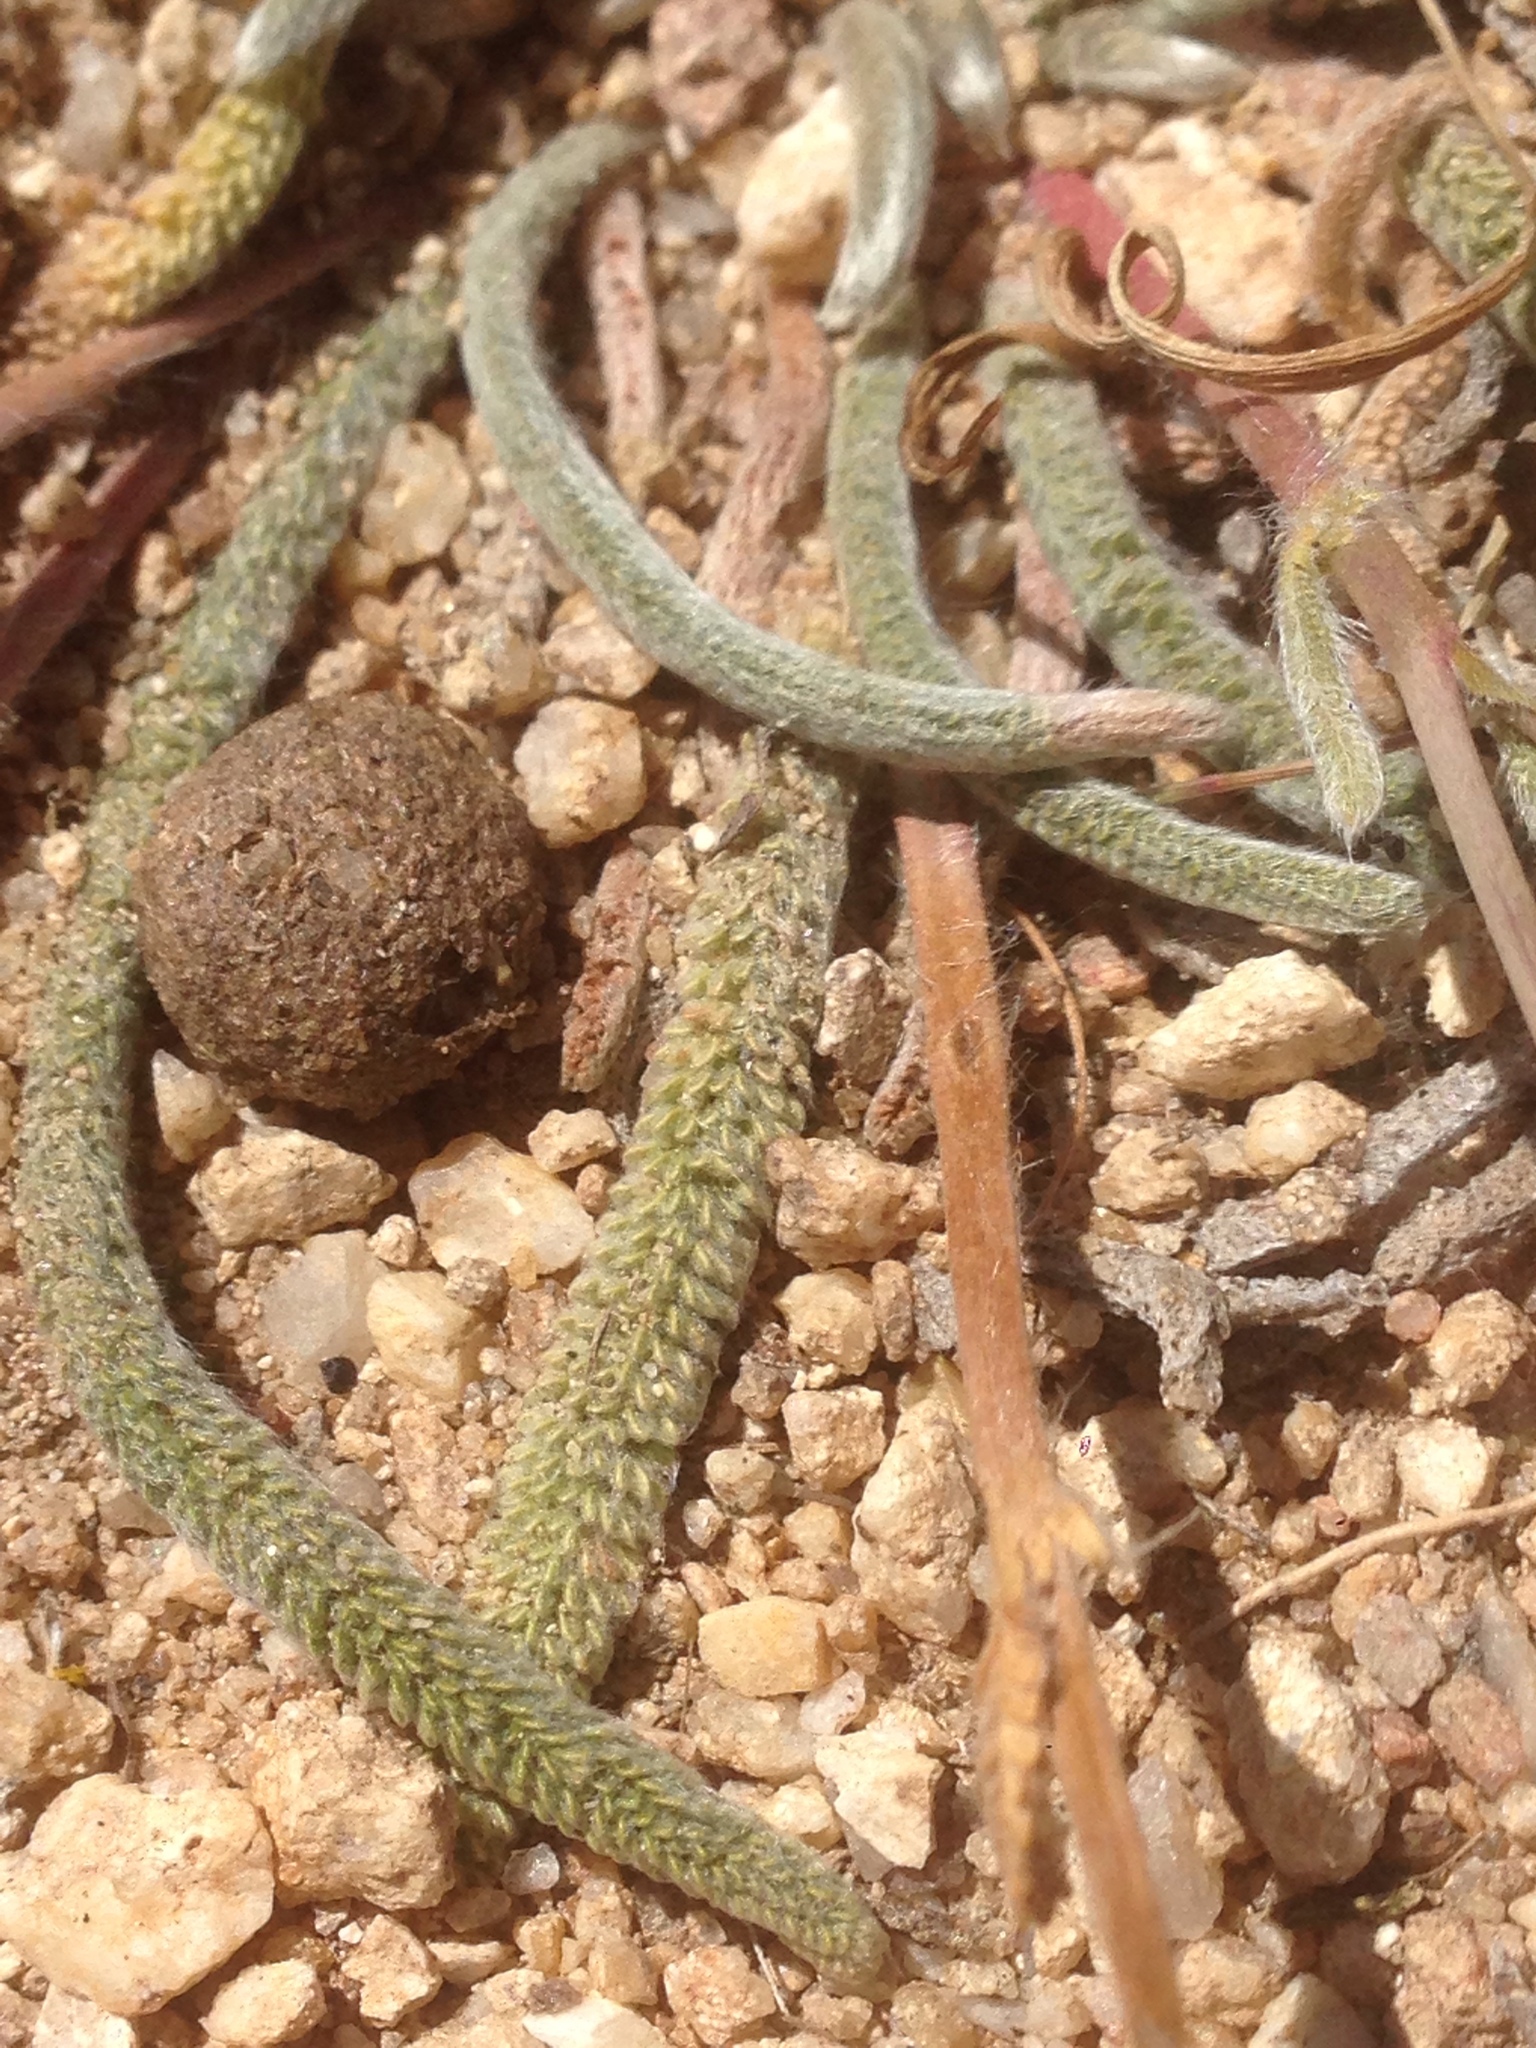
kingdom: Plantae
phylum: Tracheophyta
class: Magnoliopsida
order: Rosales
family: Rosaceae
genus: Potentilla
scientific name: Potentilla santolinoides
